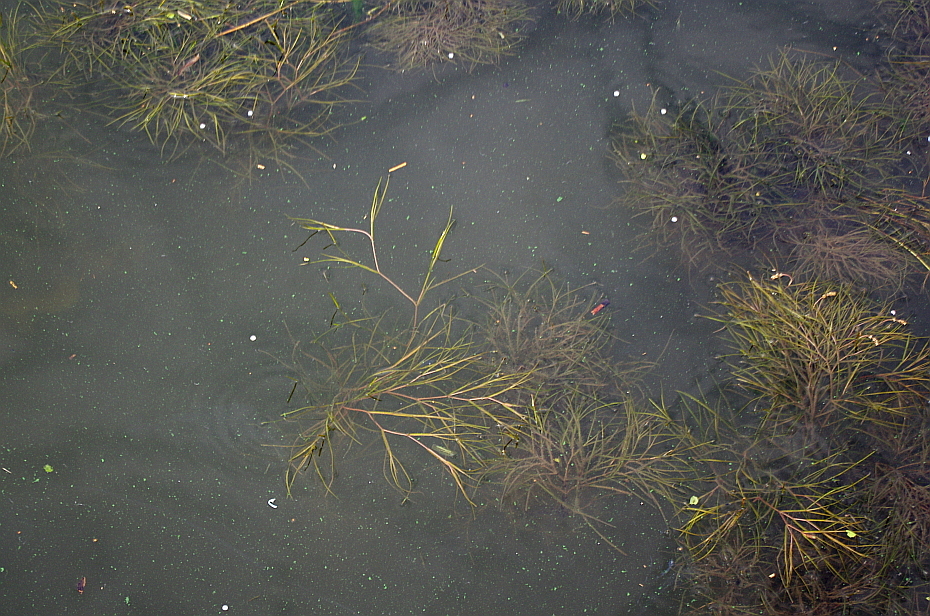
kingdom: Plantae
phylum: Tracheophyta
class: Liliopsida
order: Alismatales
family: Potamogetonaceae
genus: Stuckenia
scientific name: Stuckenia pectinata
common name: Sago pondweed
